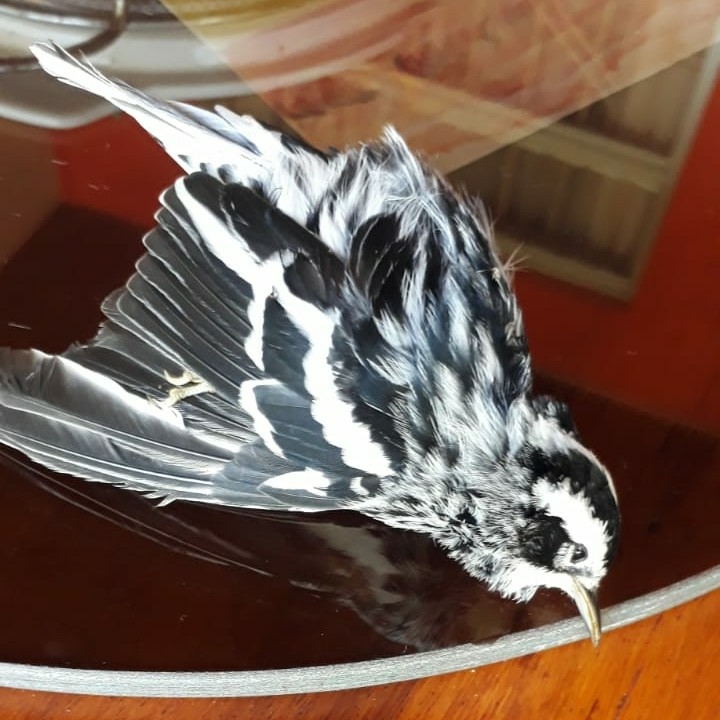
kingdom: Animalia
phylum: Chordata
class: Aves
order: Passeriformes
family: Parulidae
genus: Mniotilta
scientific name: Mniotilta varia
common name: Black-and-white warbler
